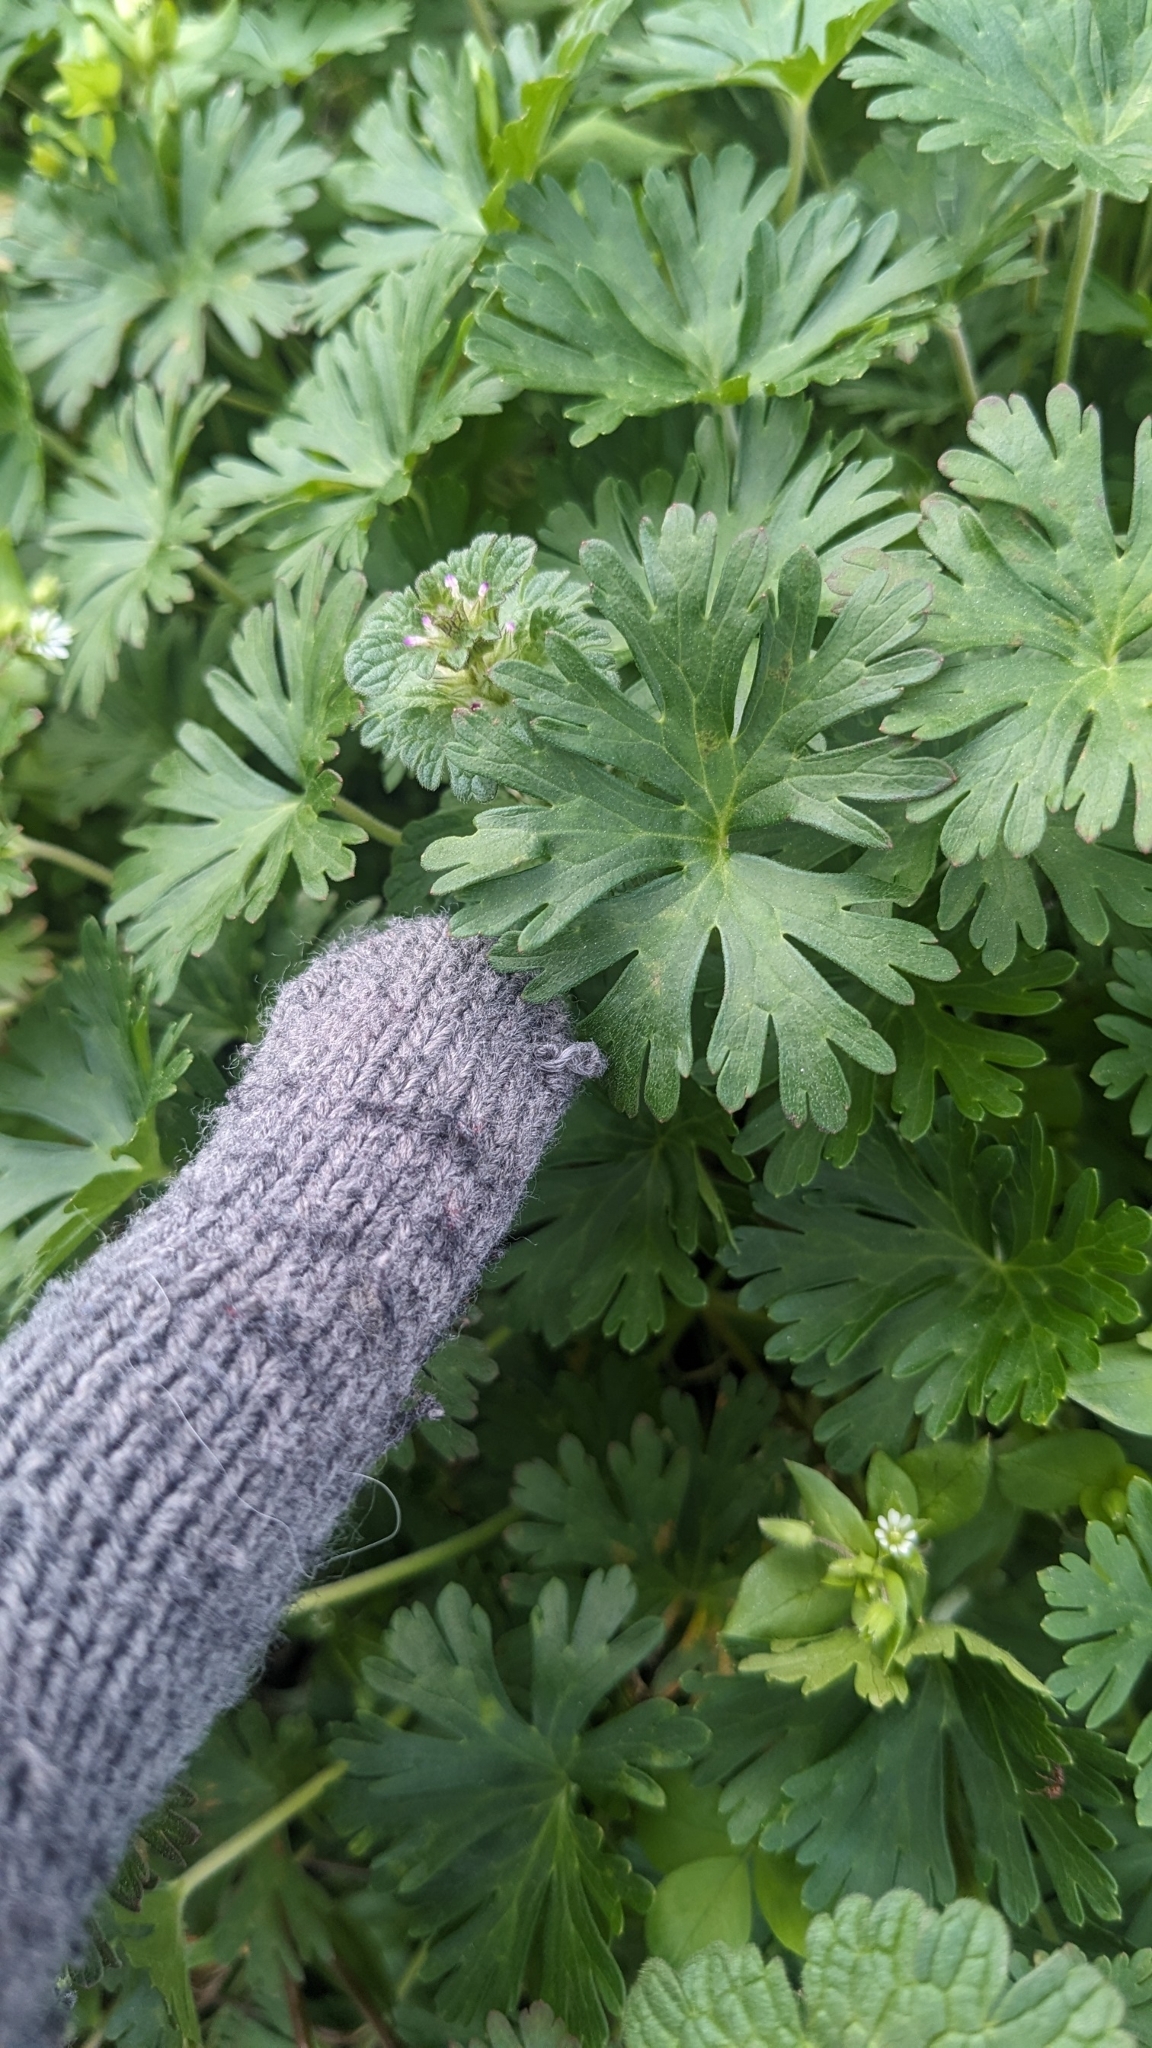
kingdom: Plantae
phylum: Tracheophyta
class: Magnoliopsida
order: Geraniales
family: Geraniaceae
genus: Geranium
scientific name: Geranium carolinianum
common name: Carolina crane's-bill
